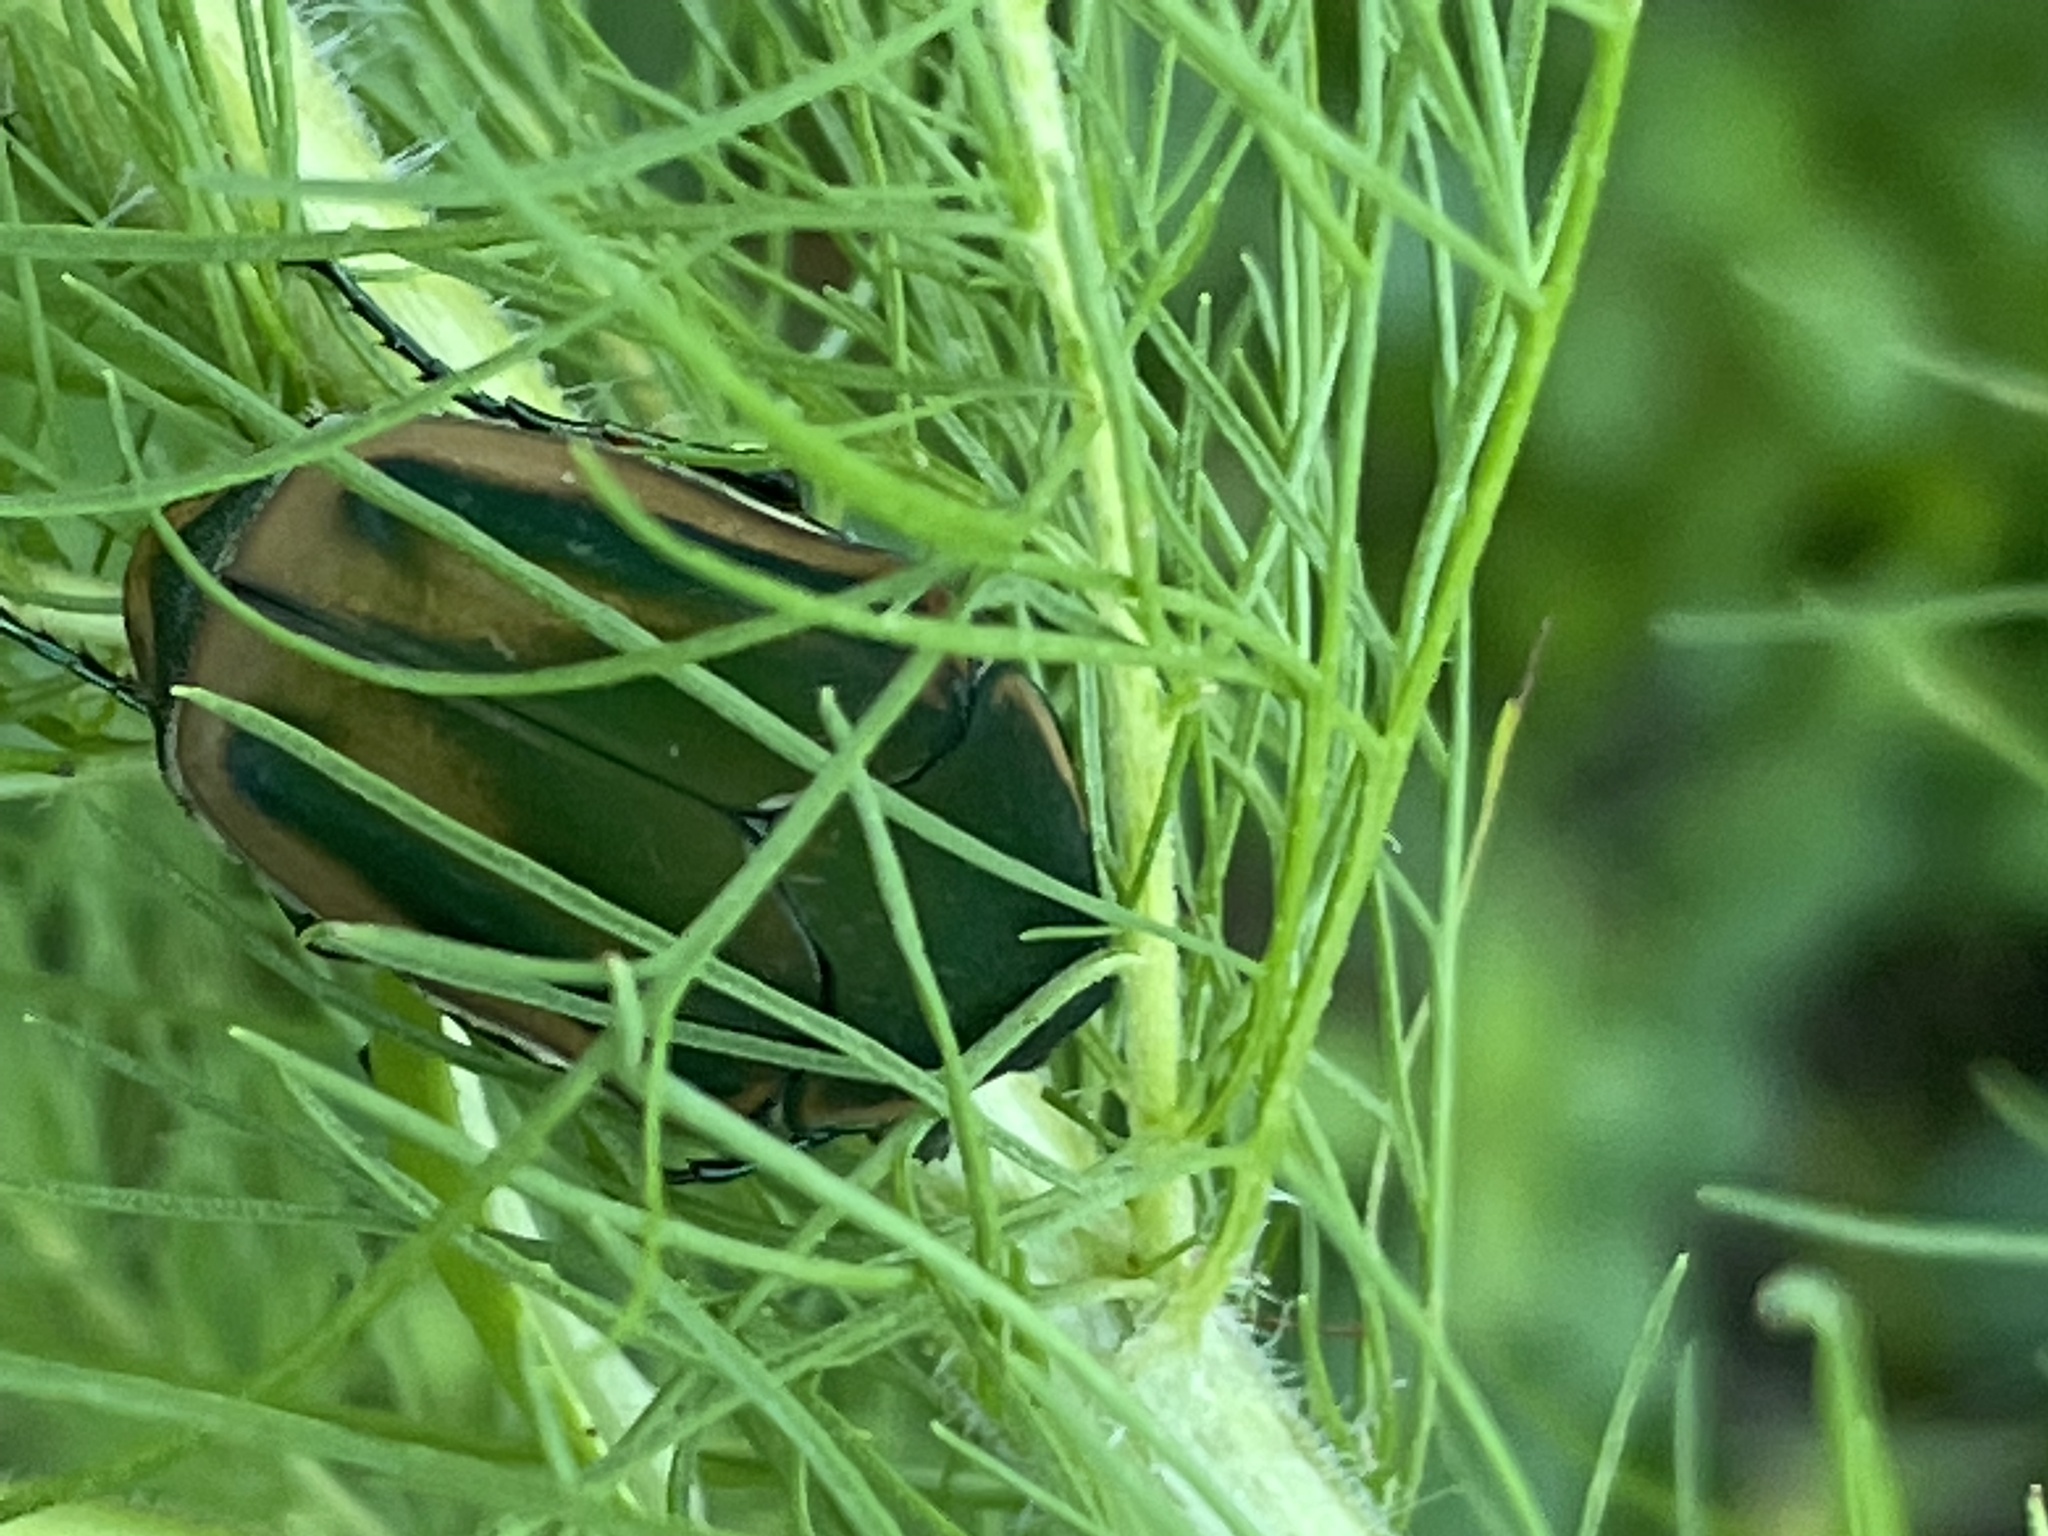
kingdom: Animalia
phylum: Arthropoda
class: Insecta
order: Coleoptera
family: Scarabaeidae
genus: Cotinis
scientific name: Cotinis nitida
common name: Common green june beetle
